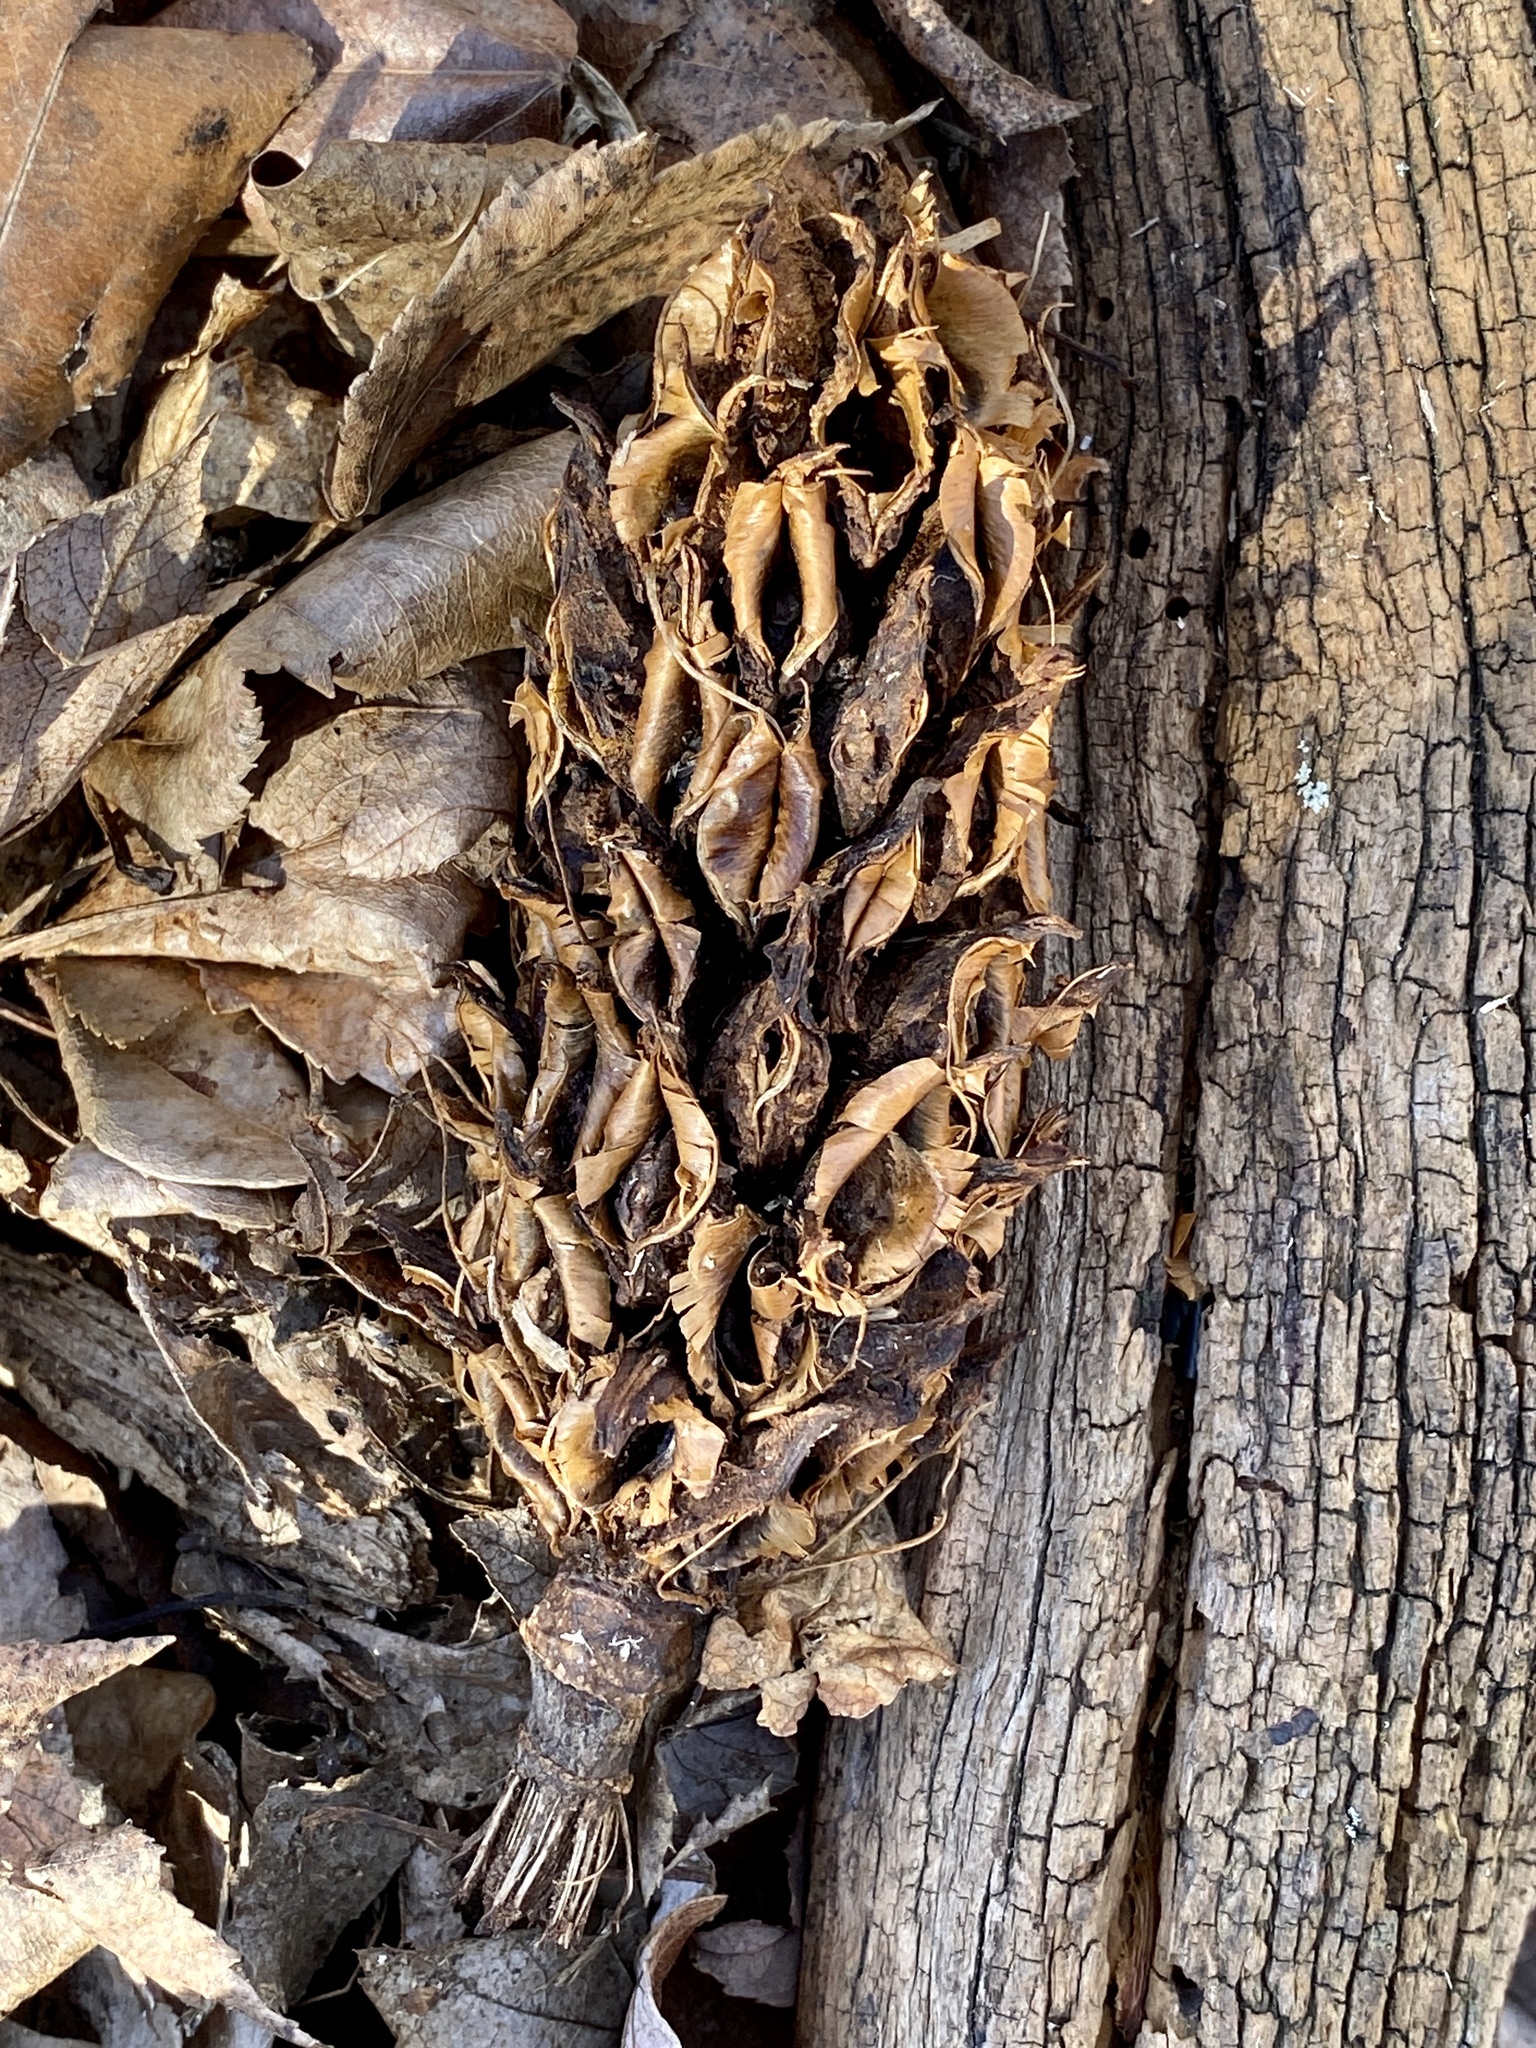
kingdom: Plantae
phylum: Tracheophyta
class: Magnoliopsida
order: Magnoliales
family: Magnoliaceae
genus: Magnolia
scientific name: Magnolia tripetala
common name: Umbrella magnolia
